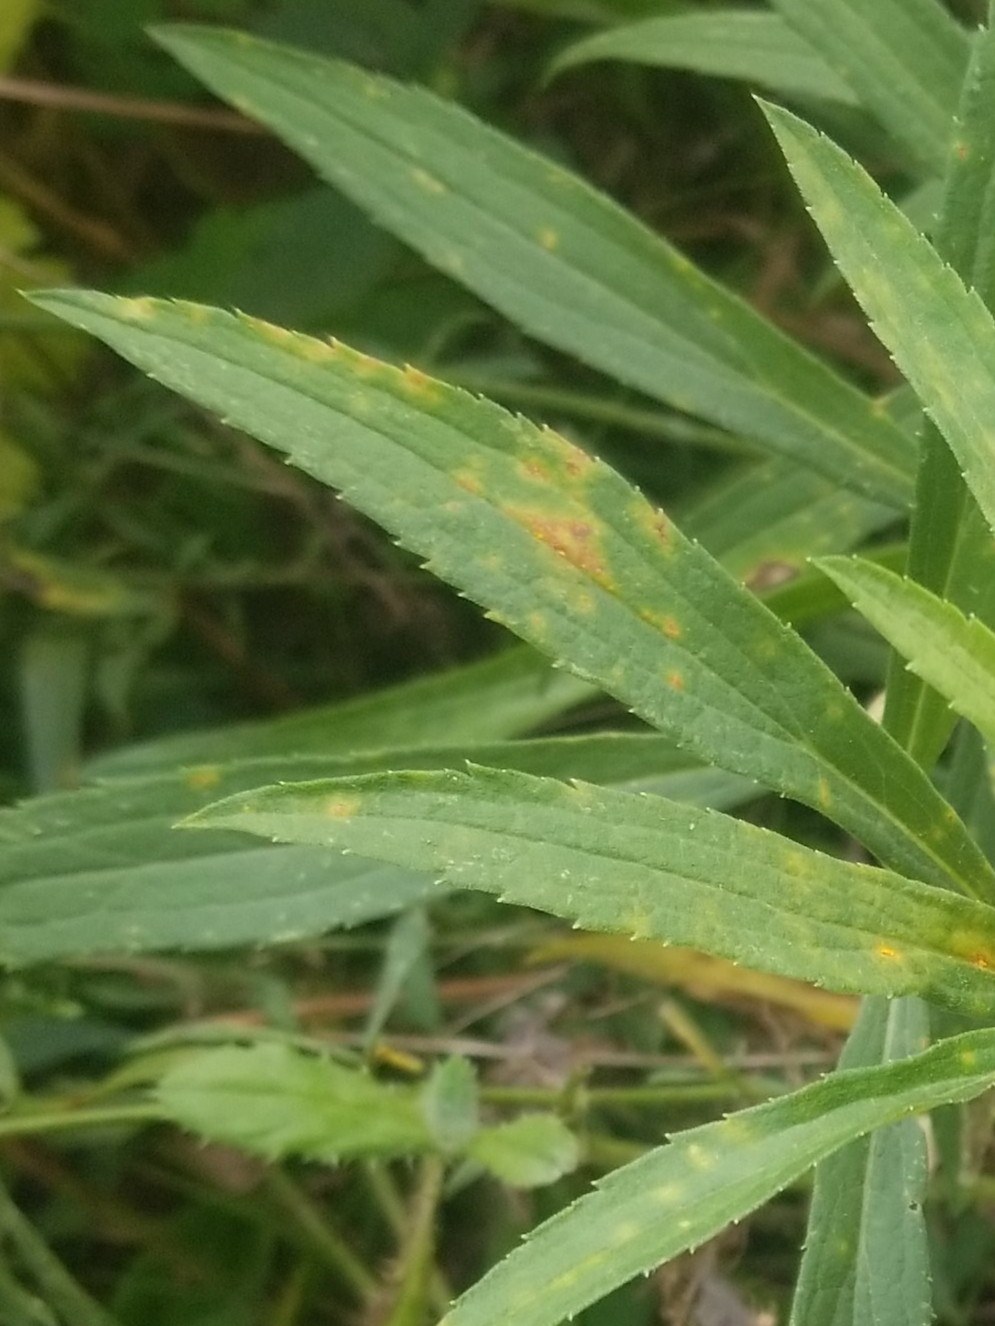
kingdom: Fungi
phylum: Basidiomycota
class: Pucciniomycetes
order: Pucciniales
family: Coleosporiaceae
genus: Coleosporium
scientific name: Coleosporium asterum
